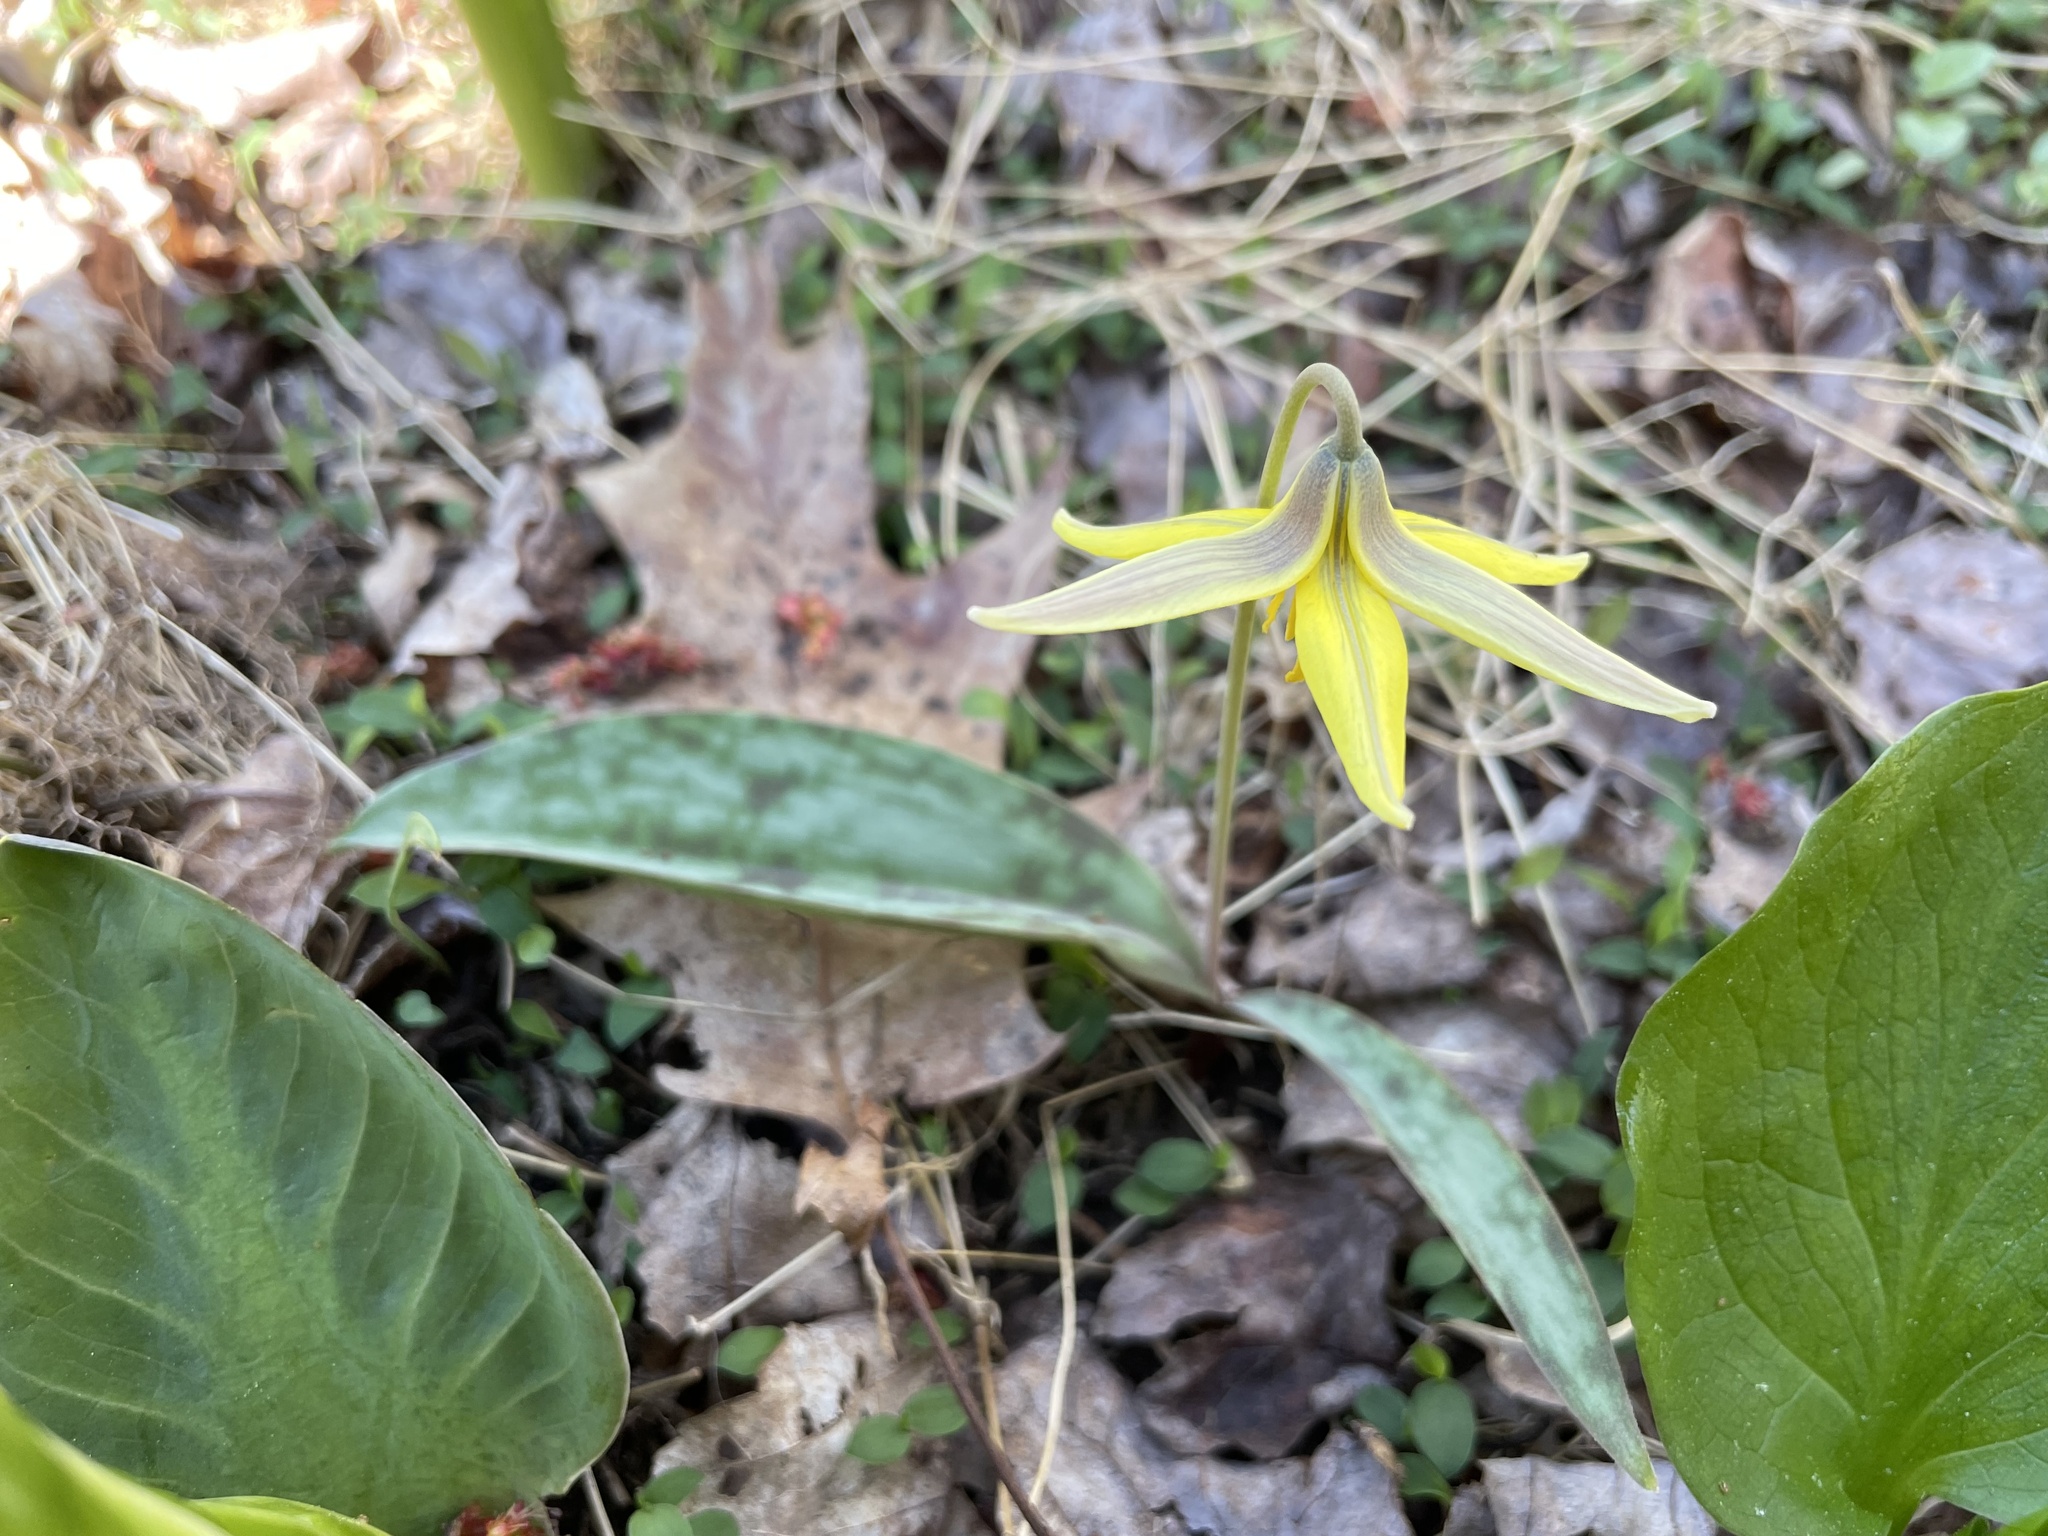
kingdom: Plantae
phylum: Tracheophyta
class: Liliopsida
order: Liliales
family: Liliaceae
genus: Erythronium
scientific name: Erythronium americanum
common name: Yellow adder's-tongue
